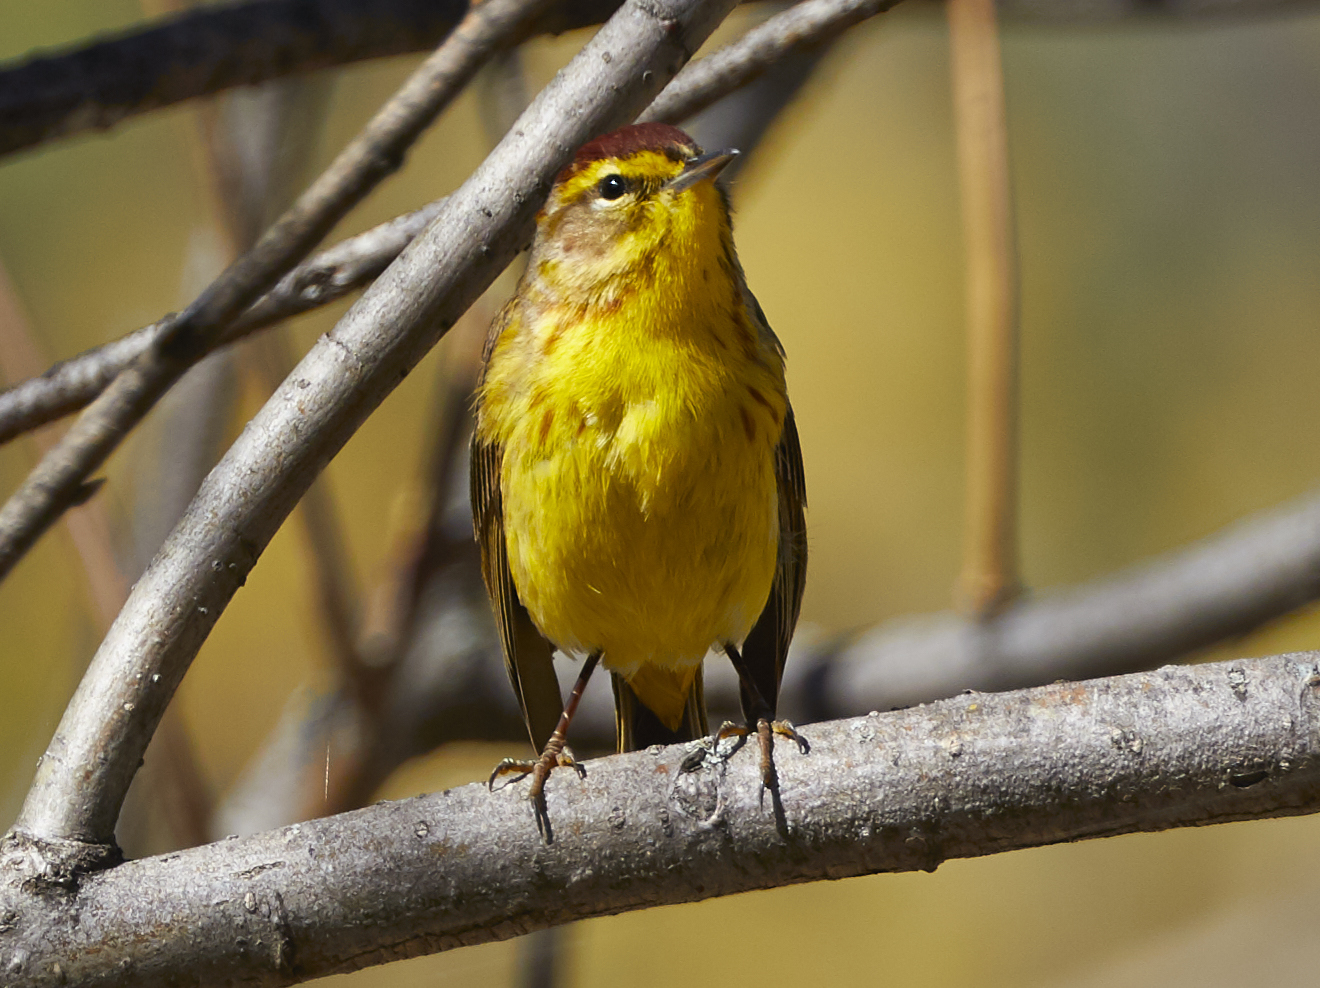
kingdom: Animalia
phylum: Chordata
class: Aves
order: Passeriformes
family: Parulidae
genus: Setophaga
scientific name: Setophaga palmarum
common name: Palm warbler
